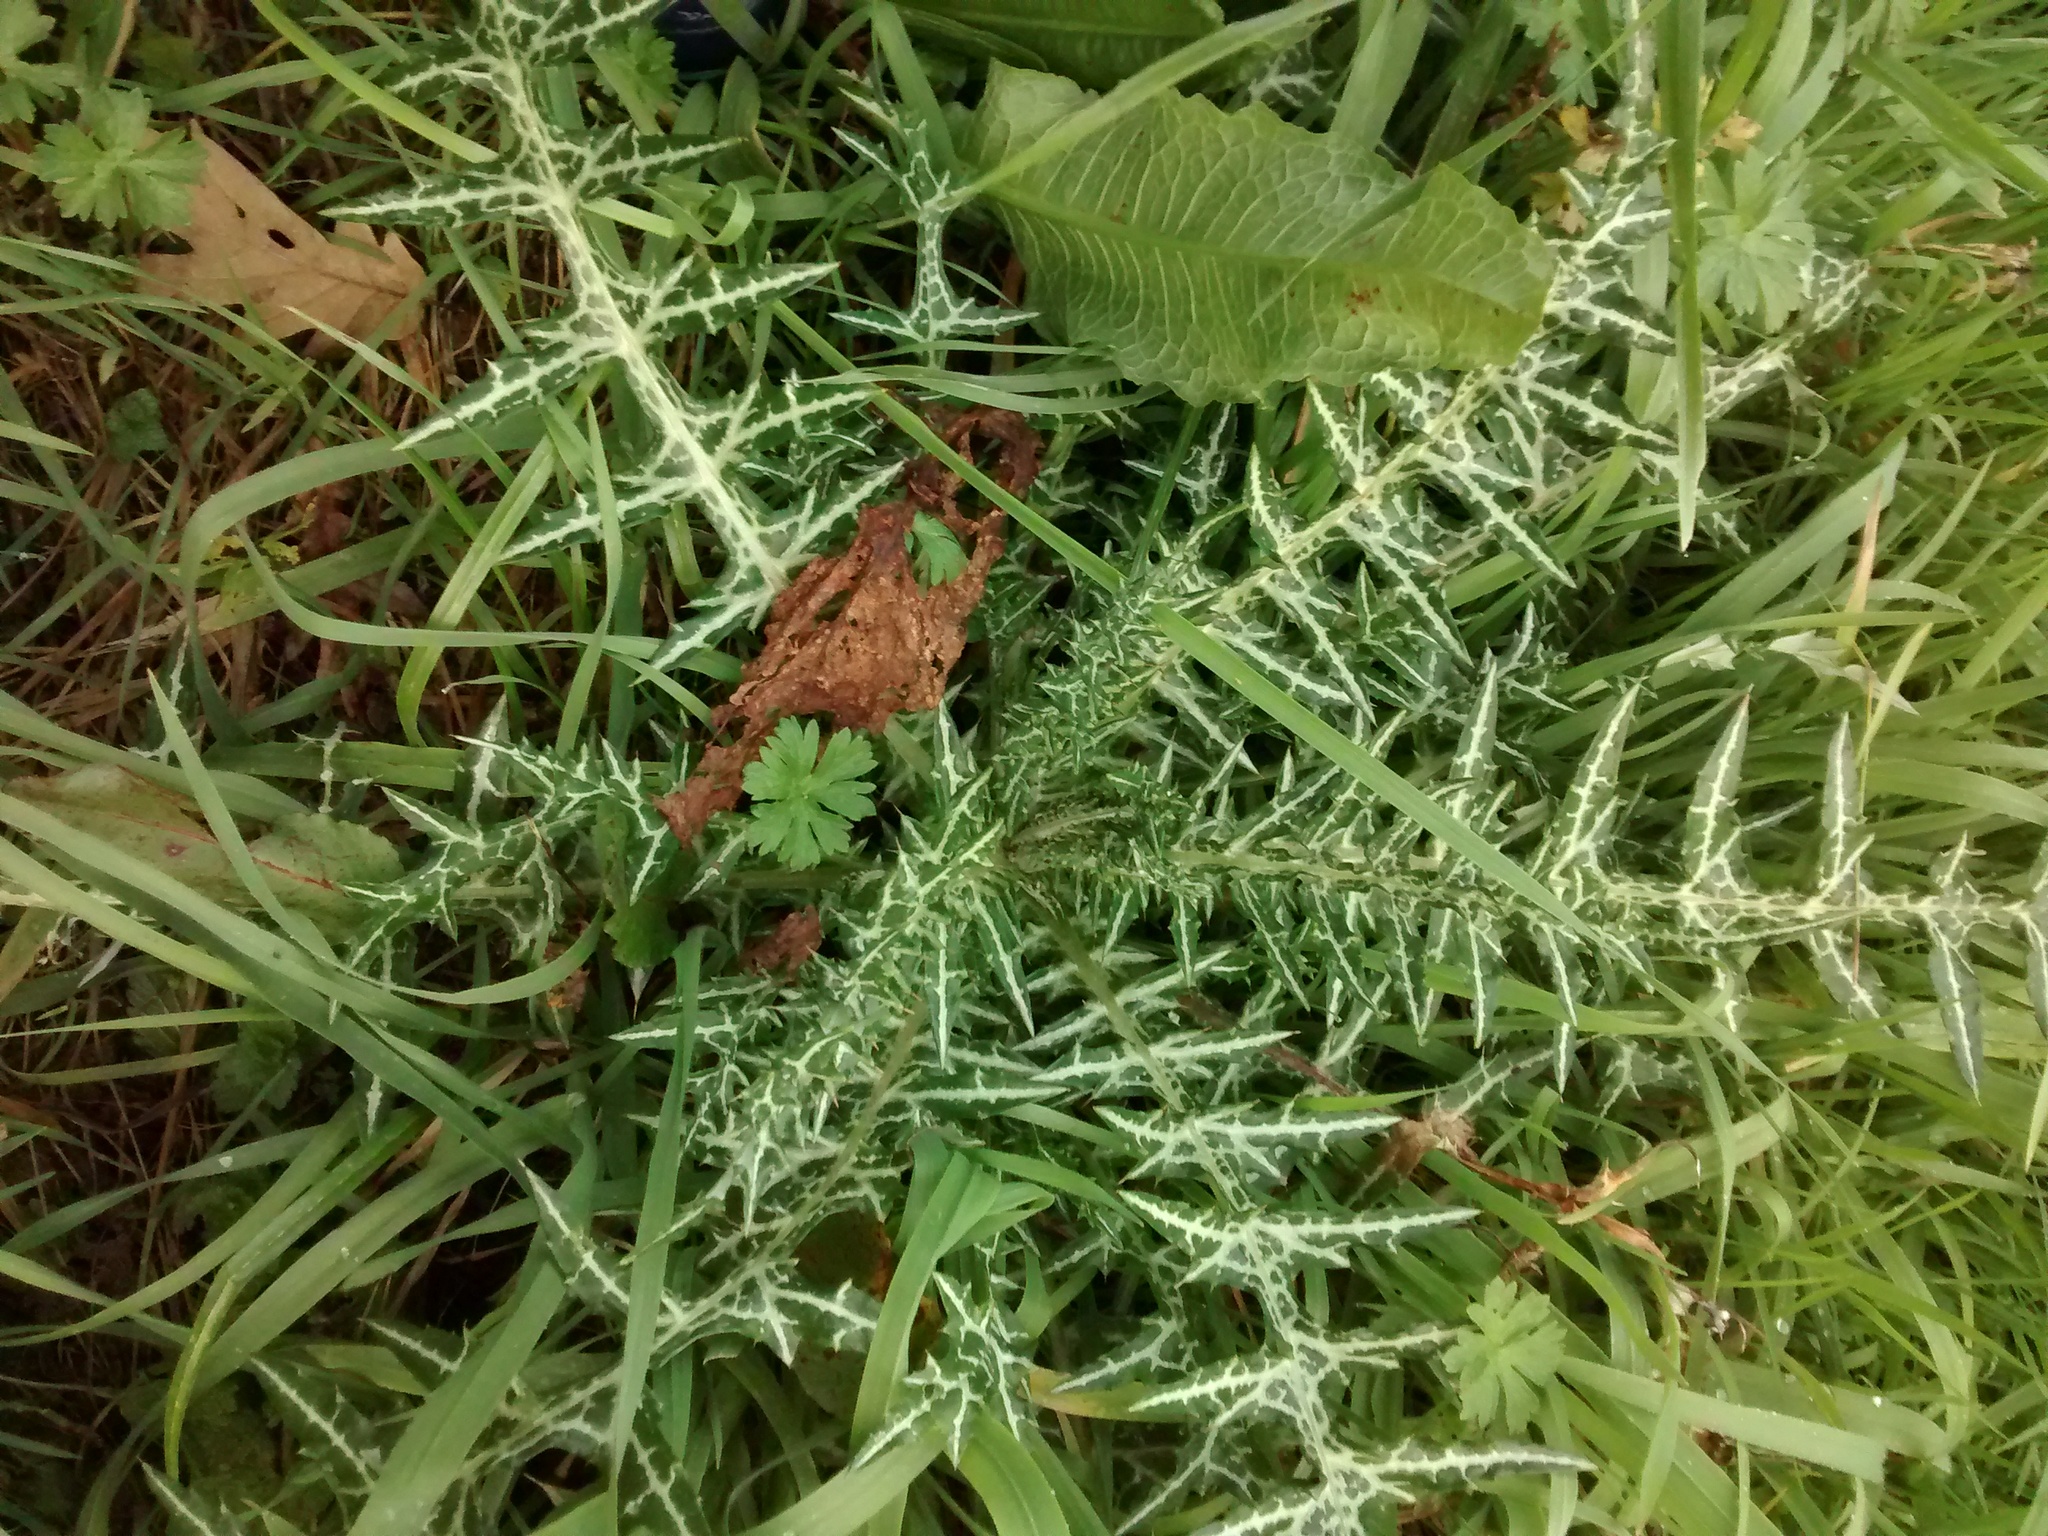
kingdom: Plantae
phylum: Tracheophyta
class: Magnoliopsida
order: Asterales
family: Asteraceae
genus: Galactites
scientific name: Galactites tomentosa
